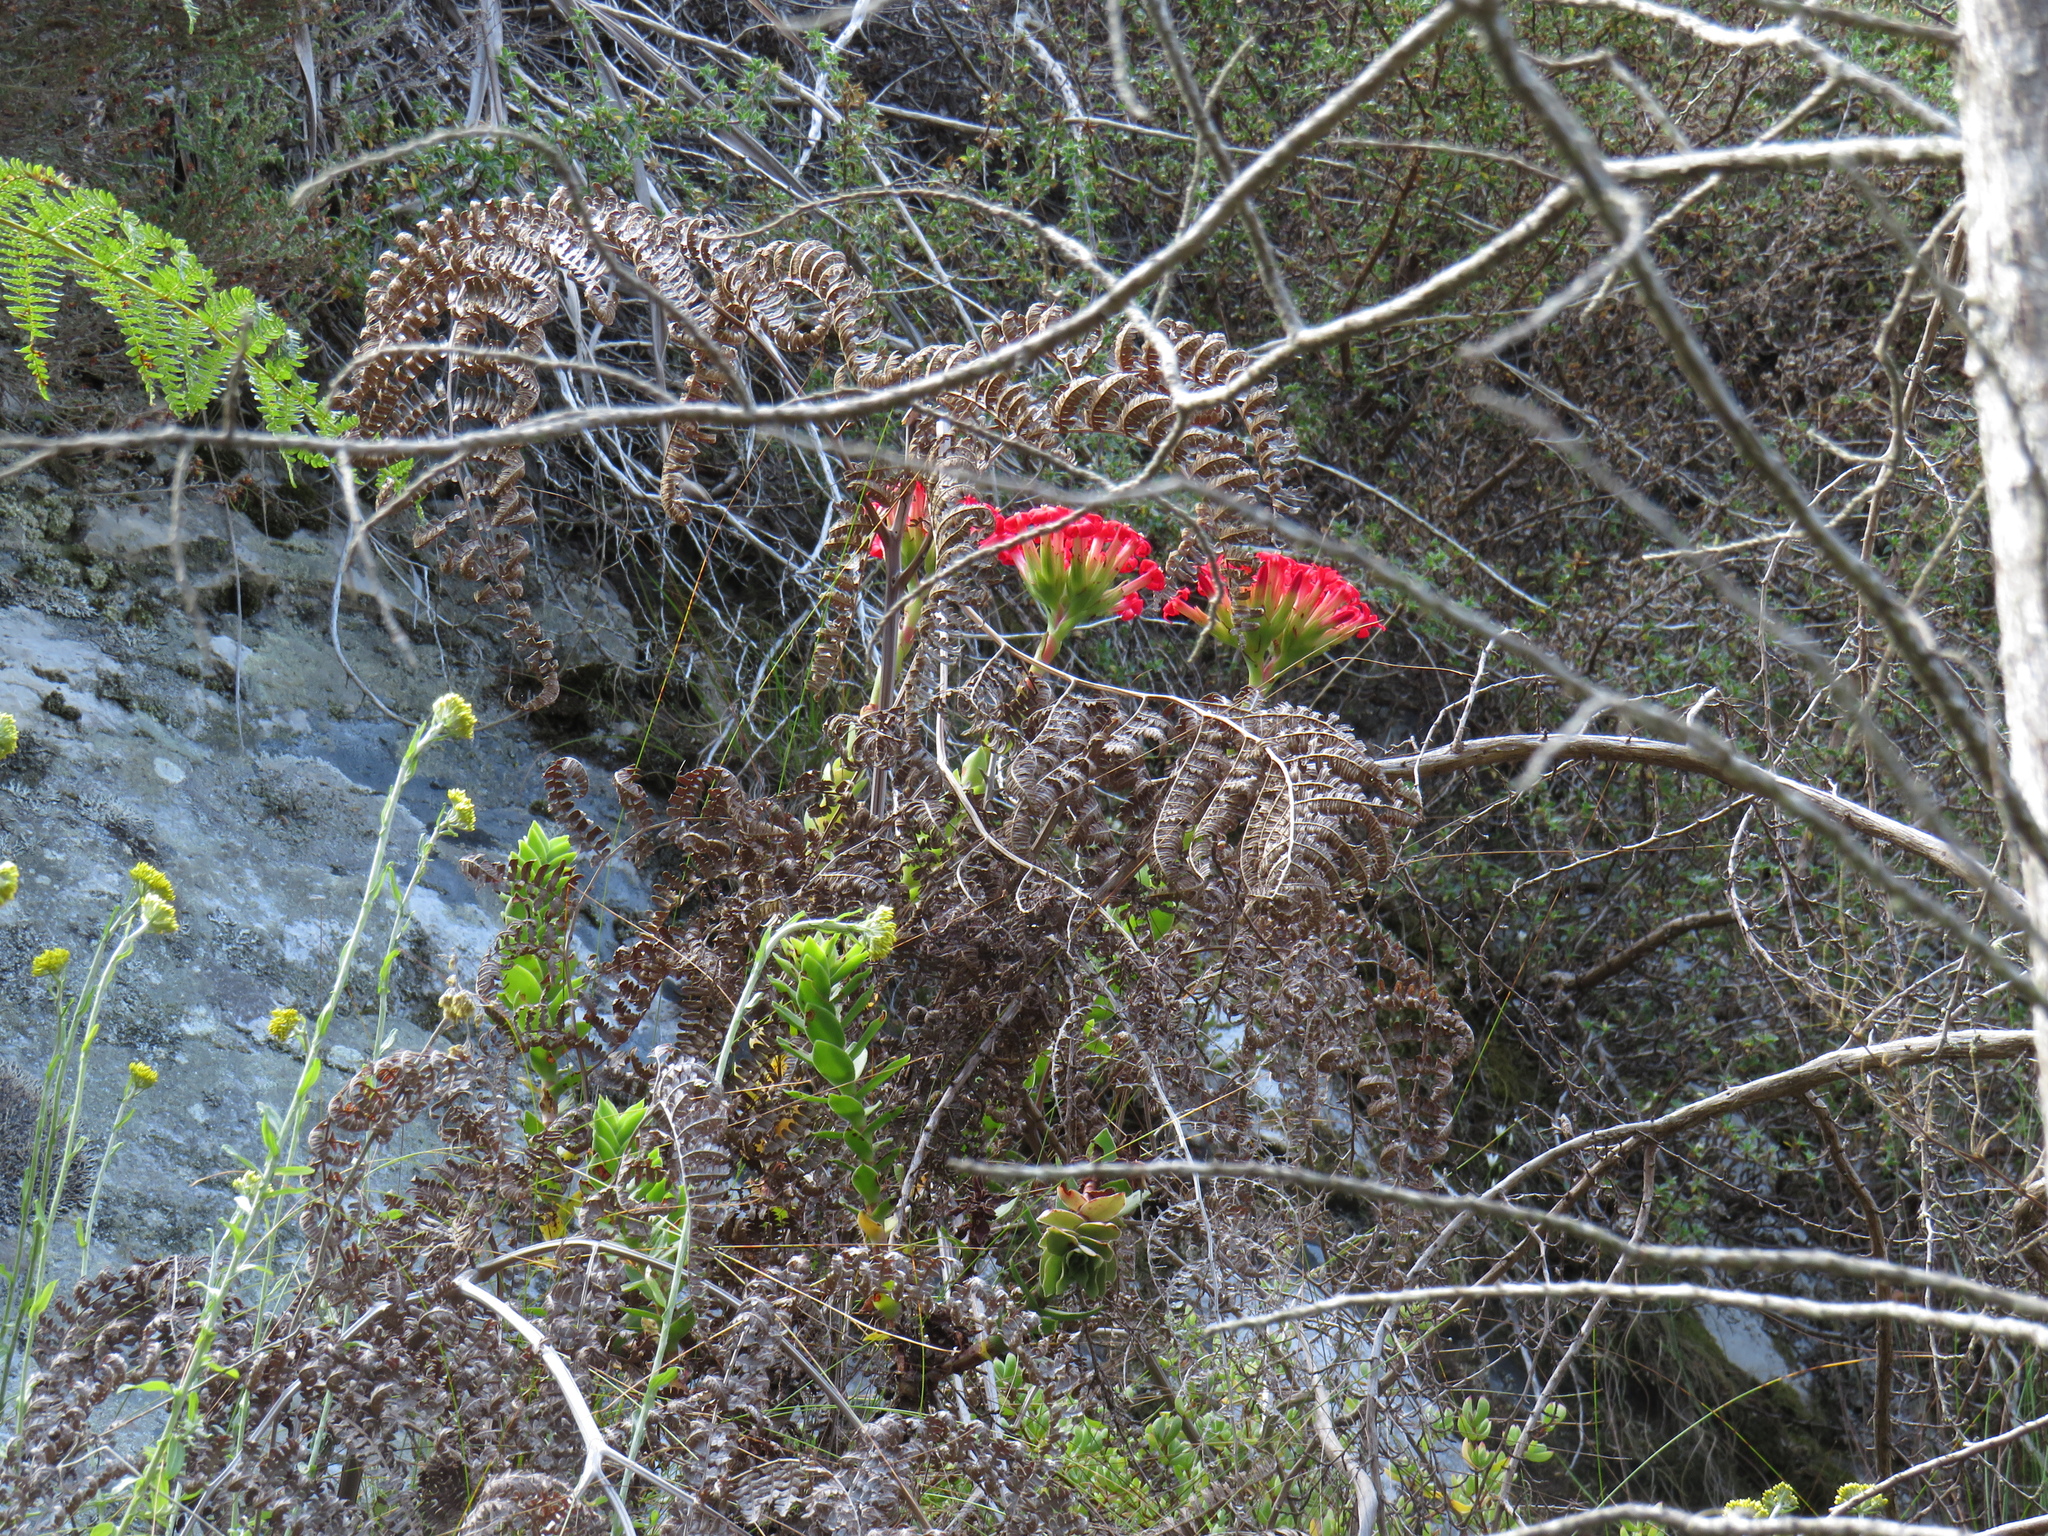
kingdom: Plantae
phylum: Tracheophyta
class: Magnoliopsida
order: Saxifragales
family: Crassulaceae
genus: Crassula
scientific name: Crassula coccinea
